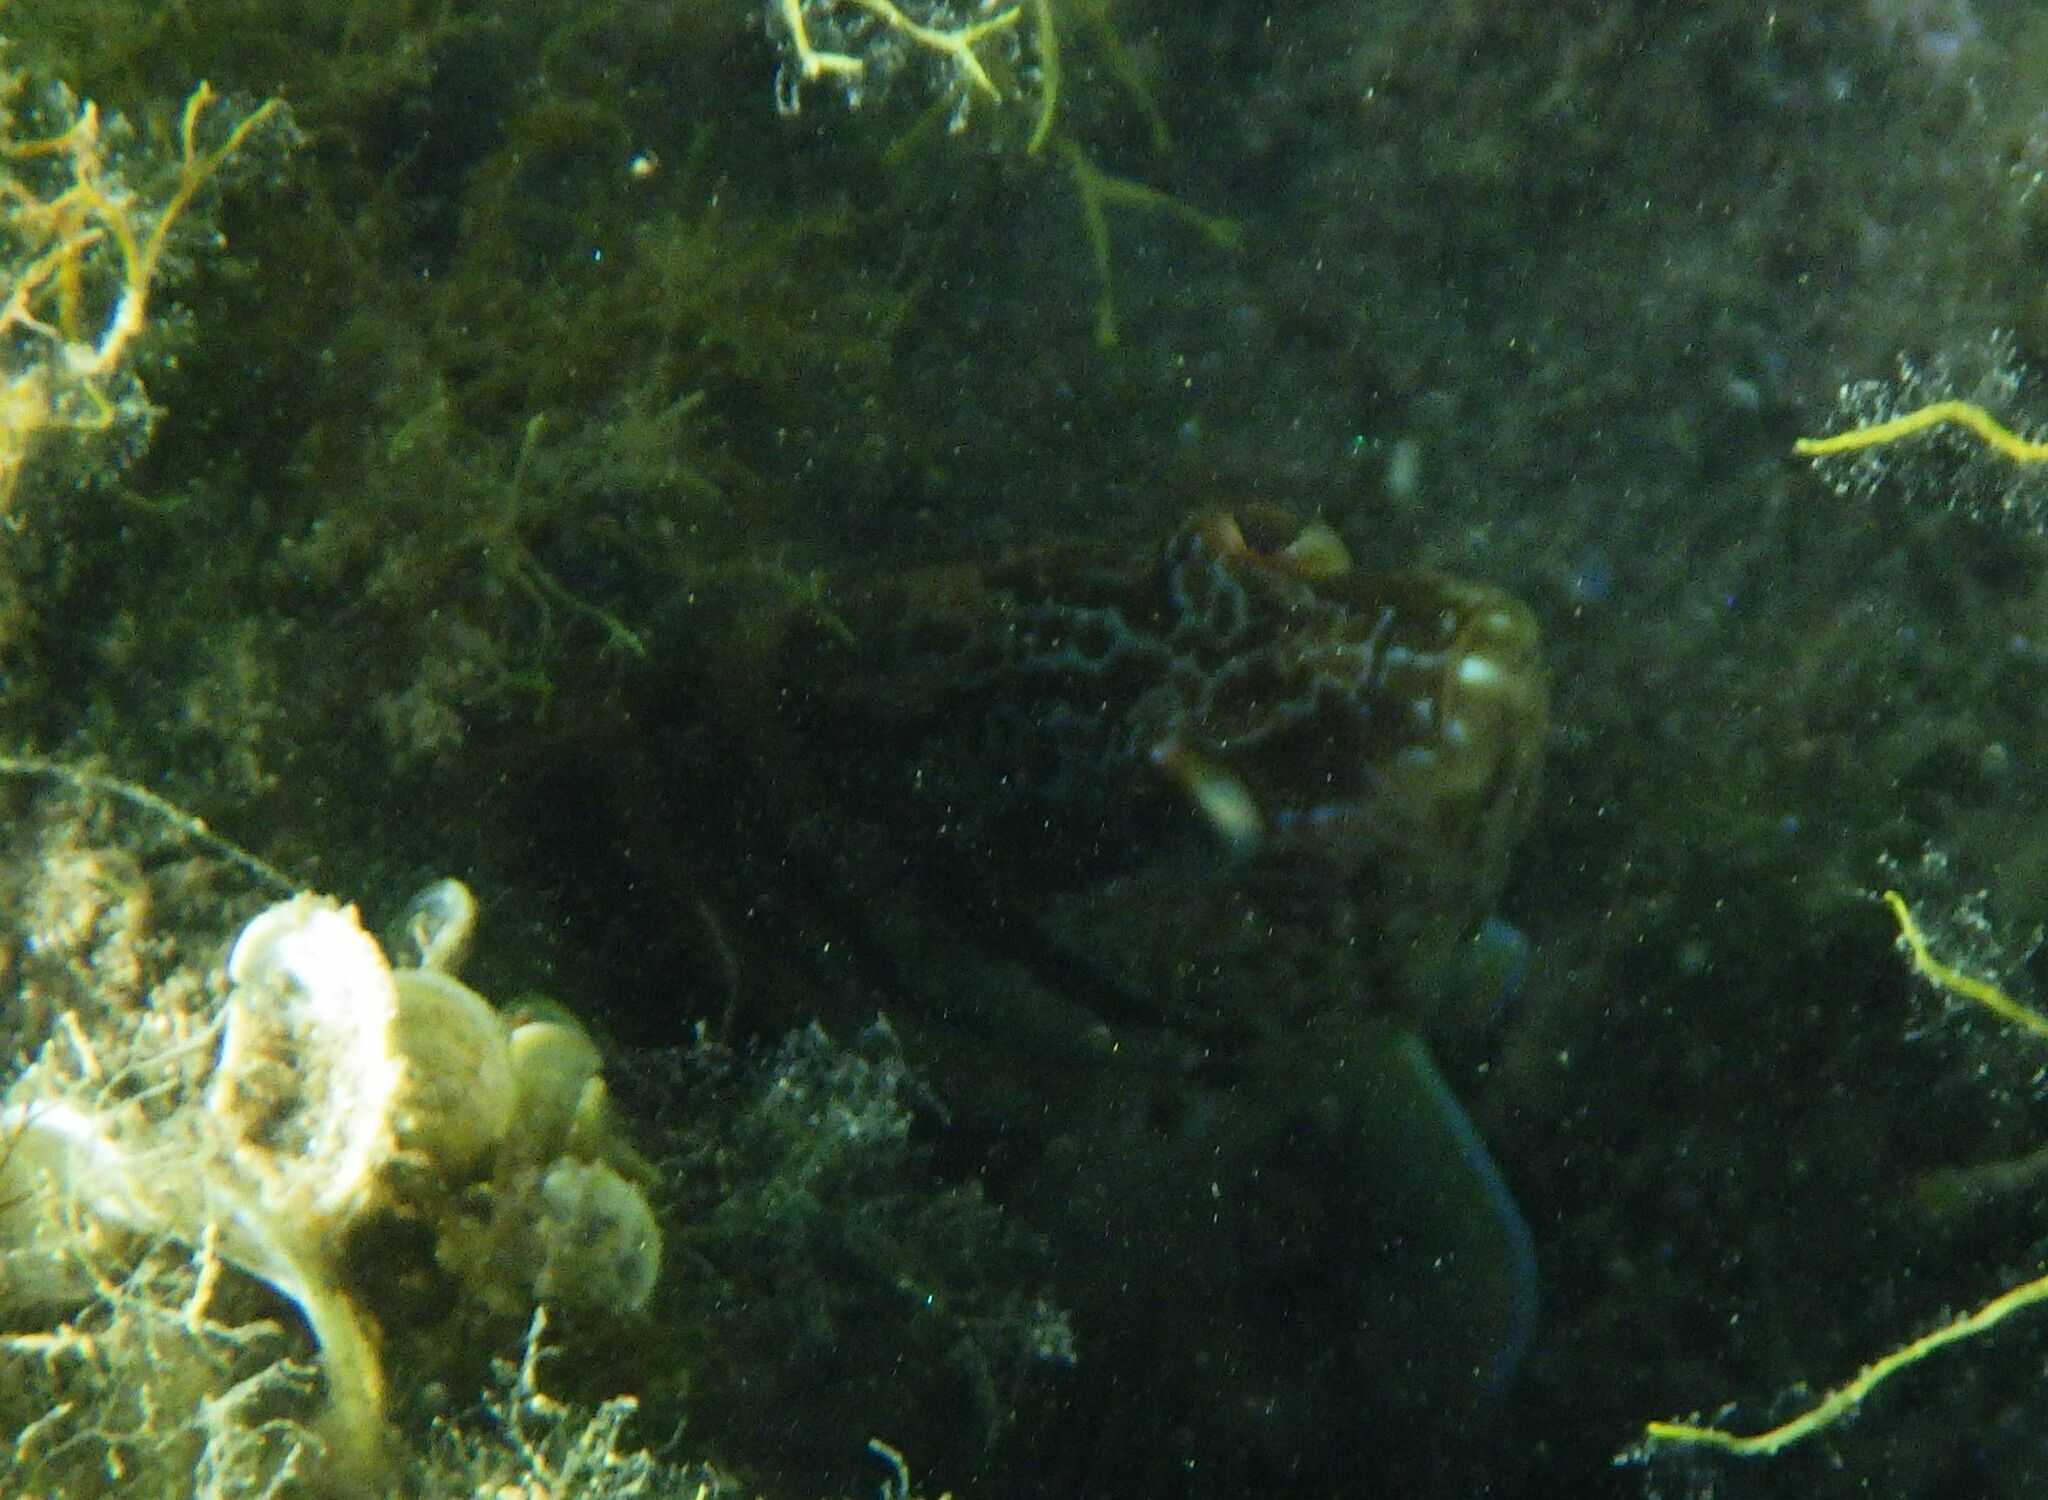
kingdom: Animalia
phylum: Chordata
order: Perciformes
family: Serranidae
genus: Serranus
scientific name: Serranus scriba
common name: Painted comber
